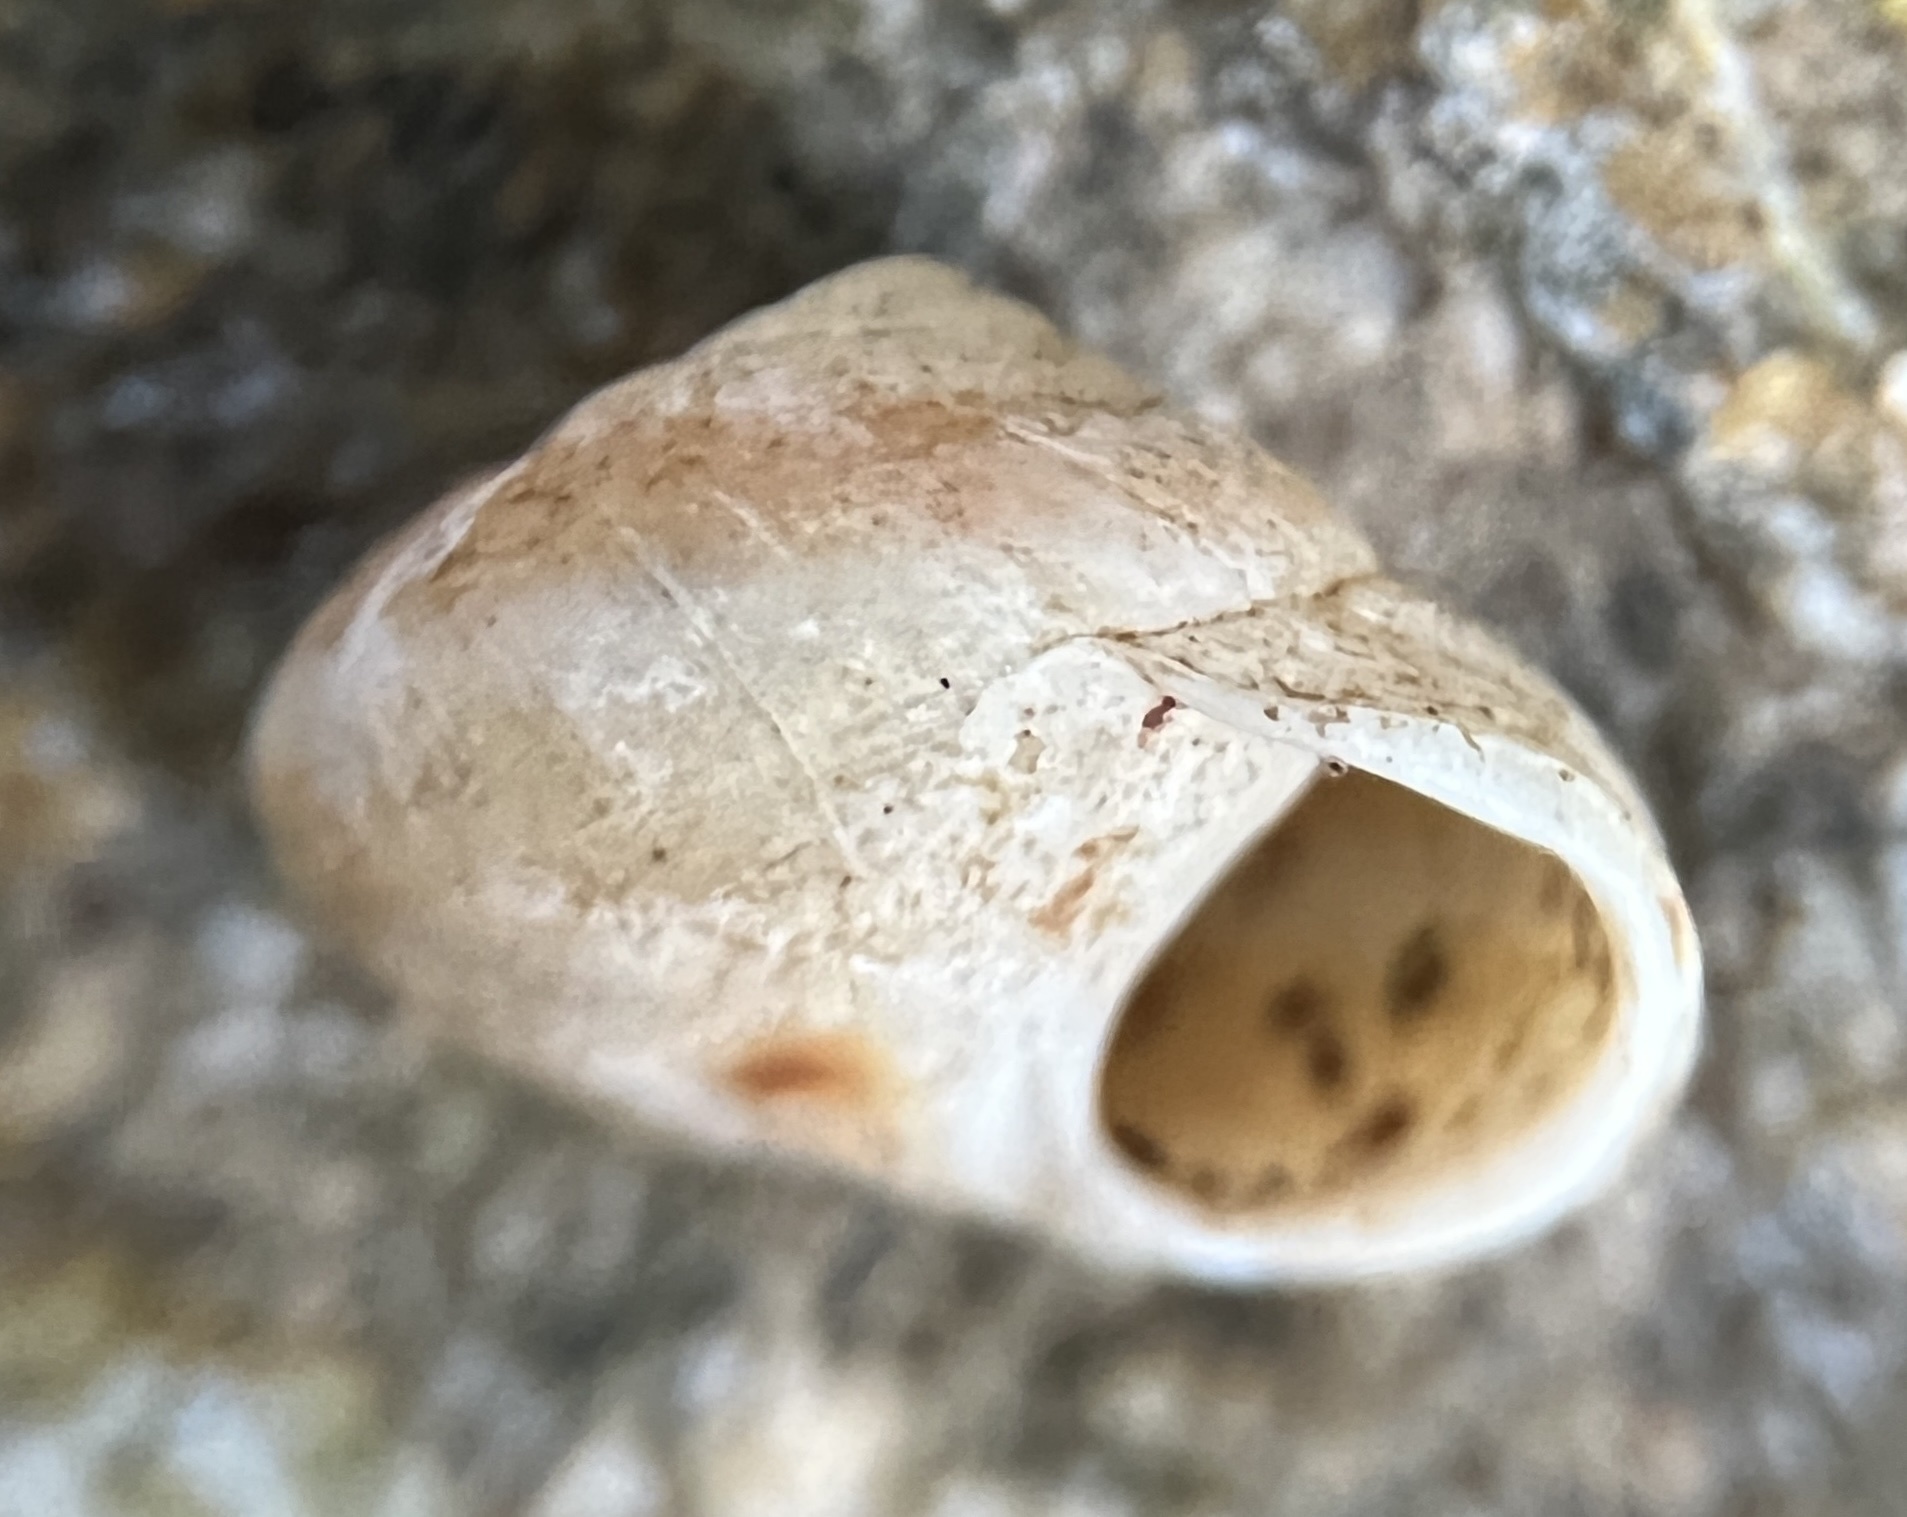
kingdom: Animalia
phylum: Mollusca
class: Gastropoda
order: Cycloneritida
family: Helicinidae
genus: Helicina
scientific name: Helicina convexa
